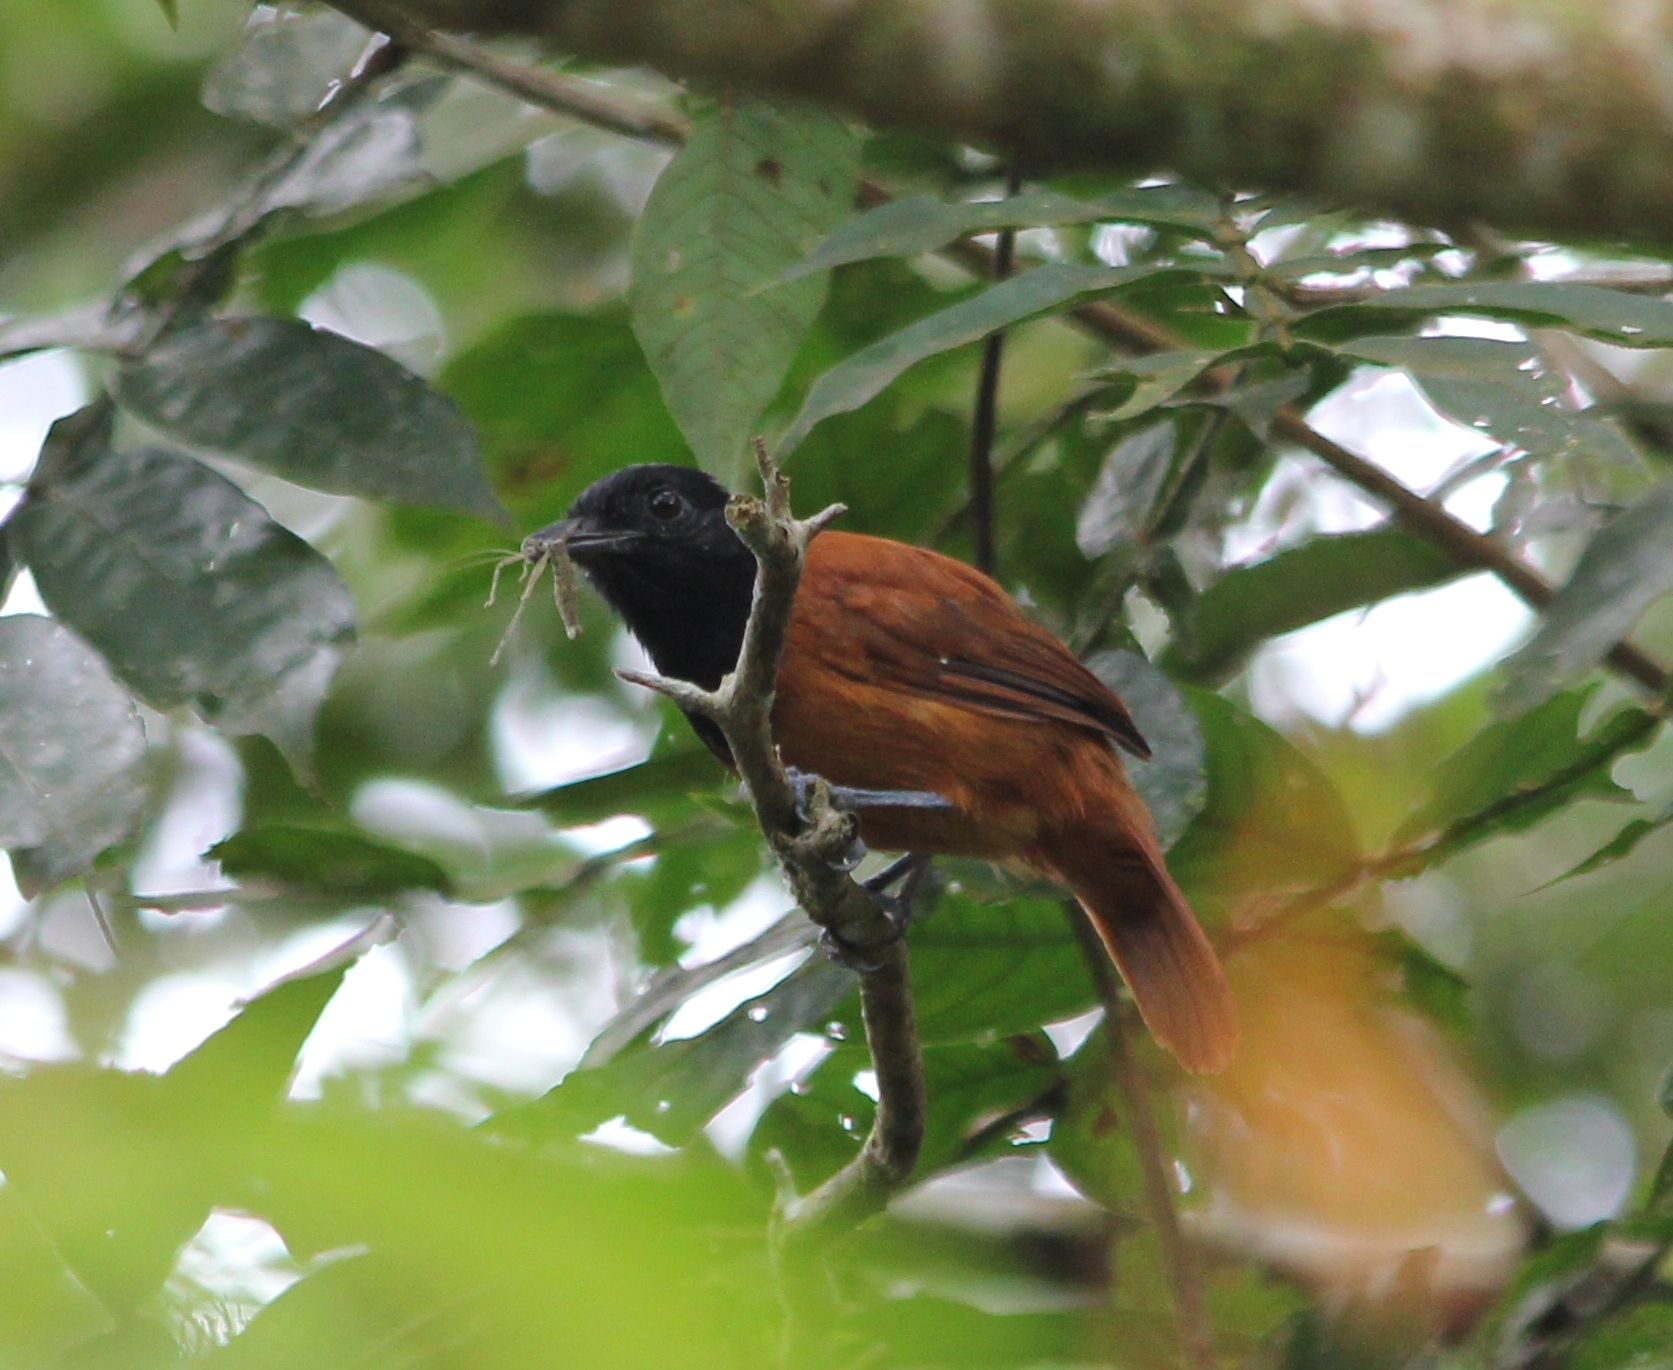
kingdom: Animalia
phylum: Chordata
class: Aves
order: Passeriformes
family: Thamnophilidae
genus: Thamnophilus
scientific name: Thamnophilus praecox
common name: Cocha antshrike
